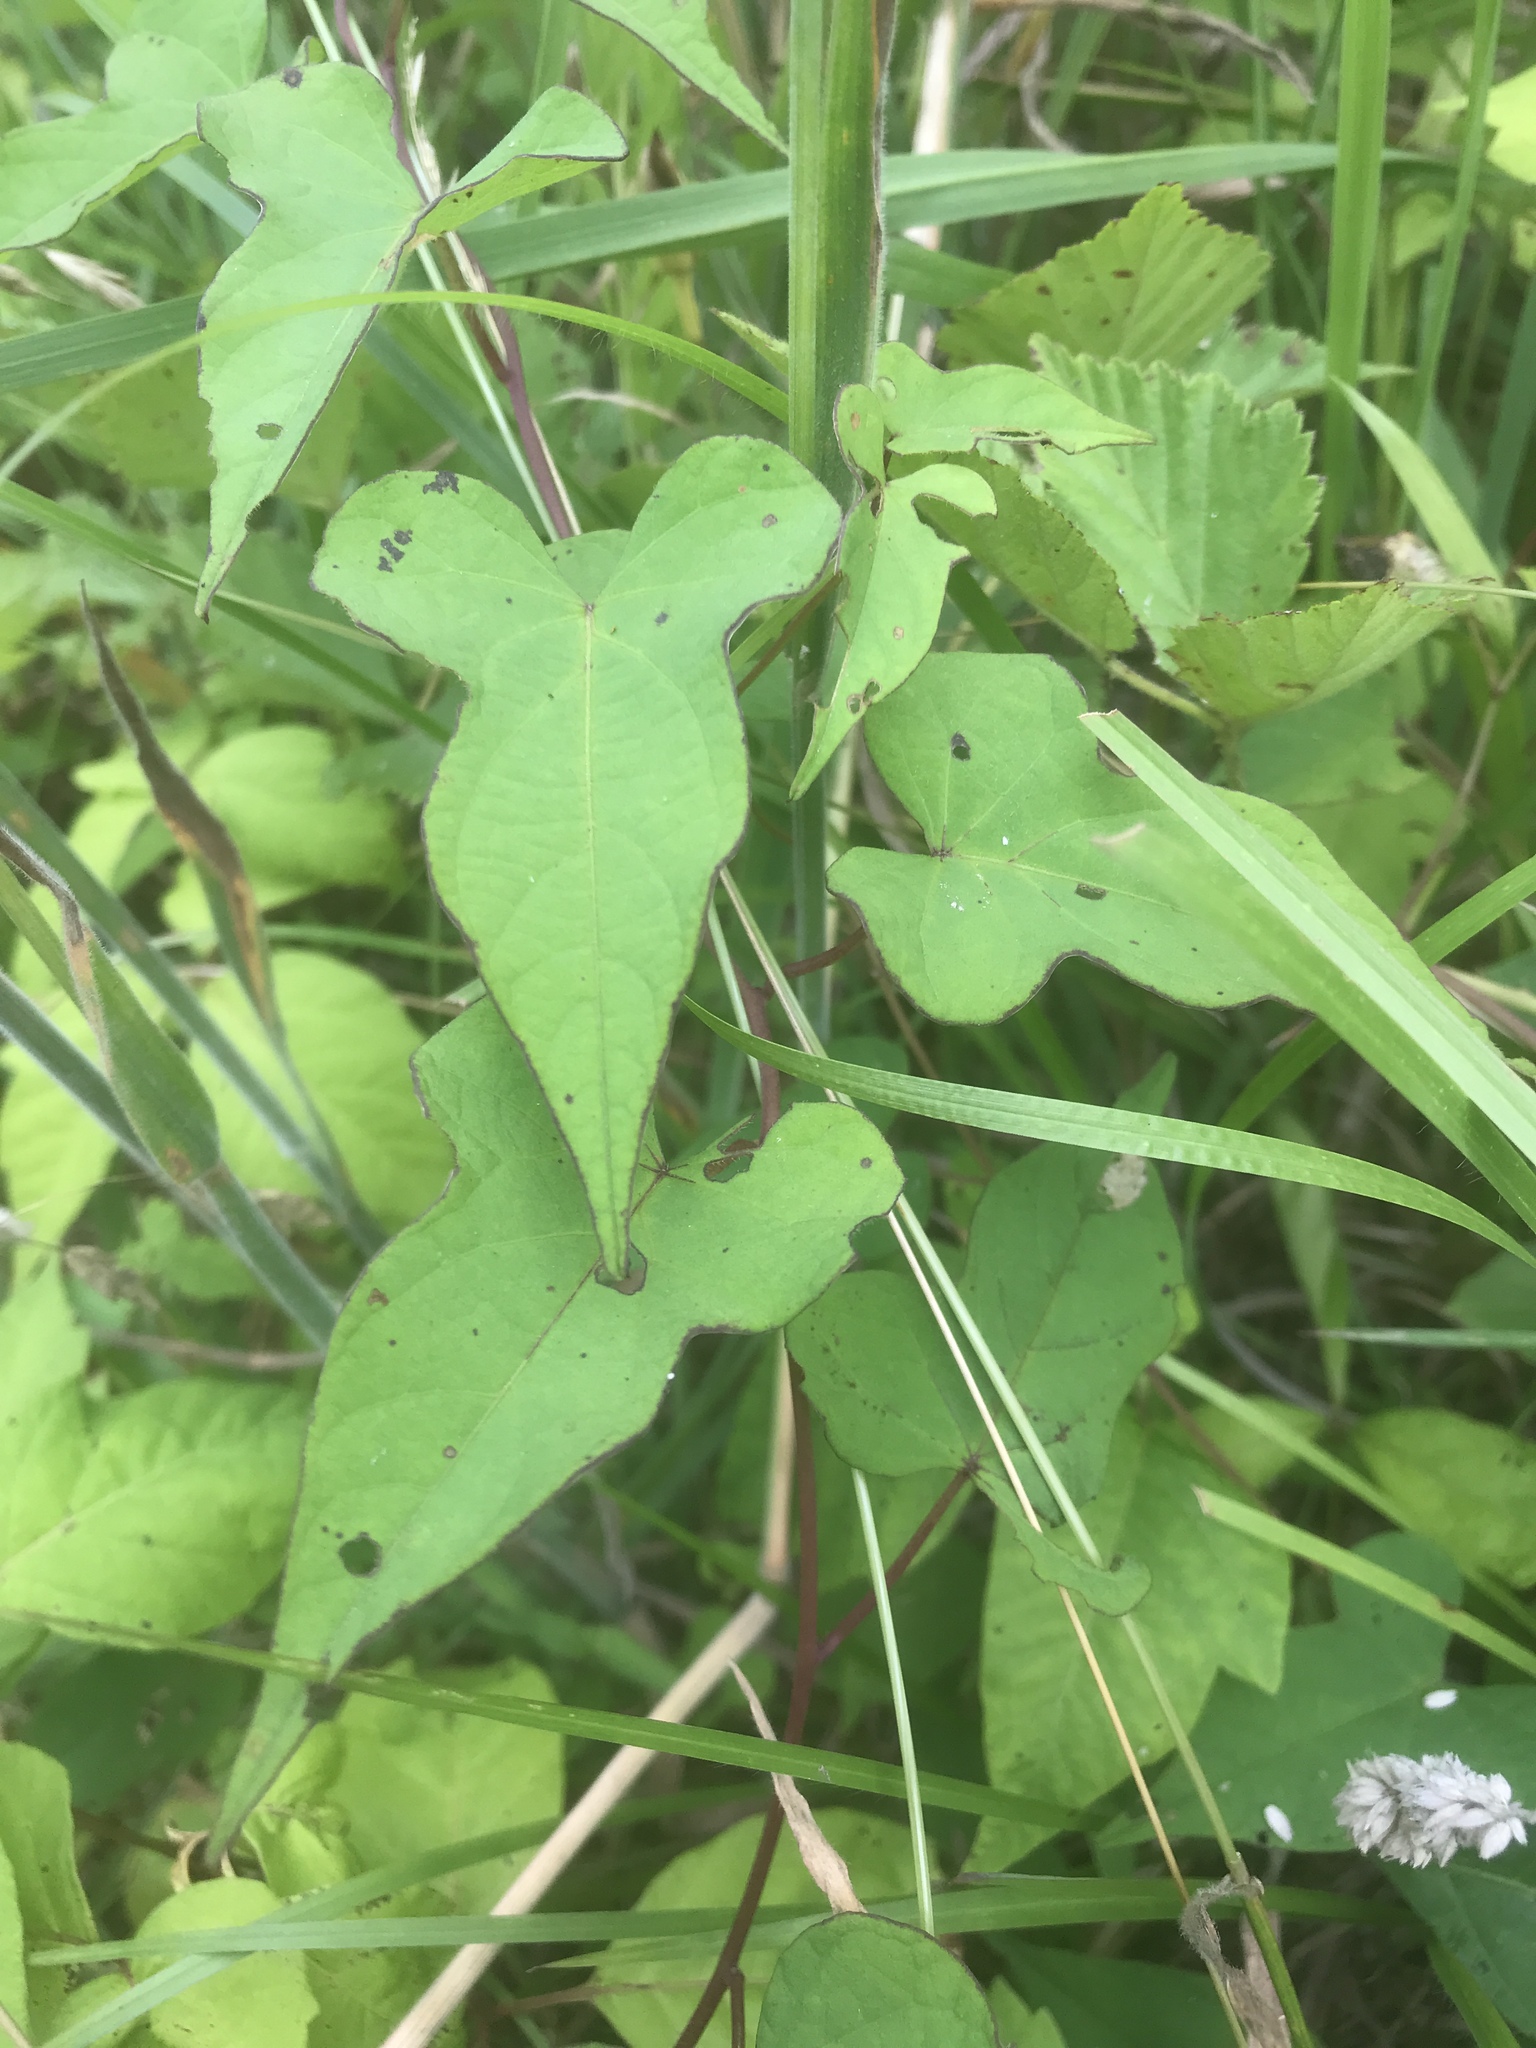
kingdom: Plantae
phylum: Tracheophyta
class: Magnoliopsida
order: Solanales
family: Convolvulaceae
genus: Ipomoea
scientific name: Ipomoea pandurata
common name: Man-of-the-earth
